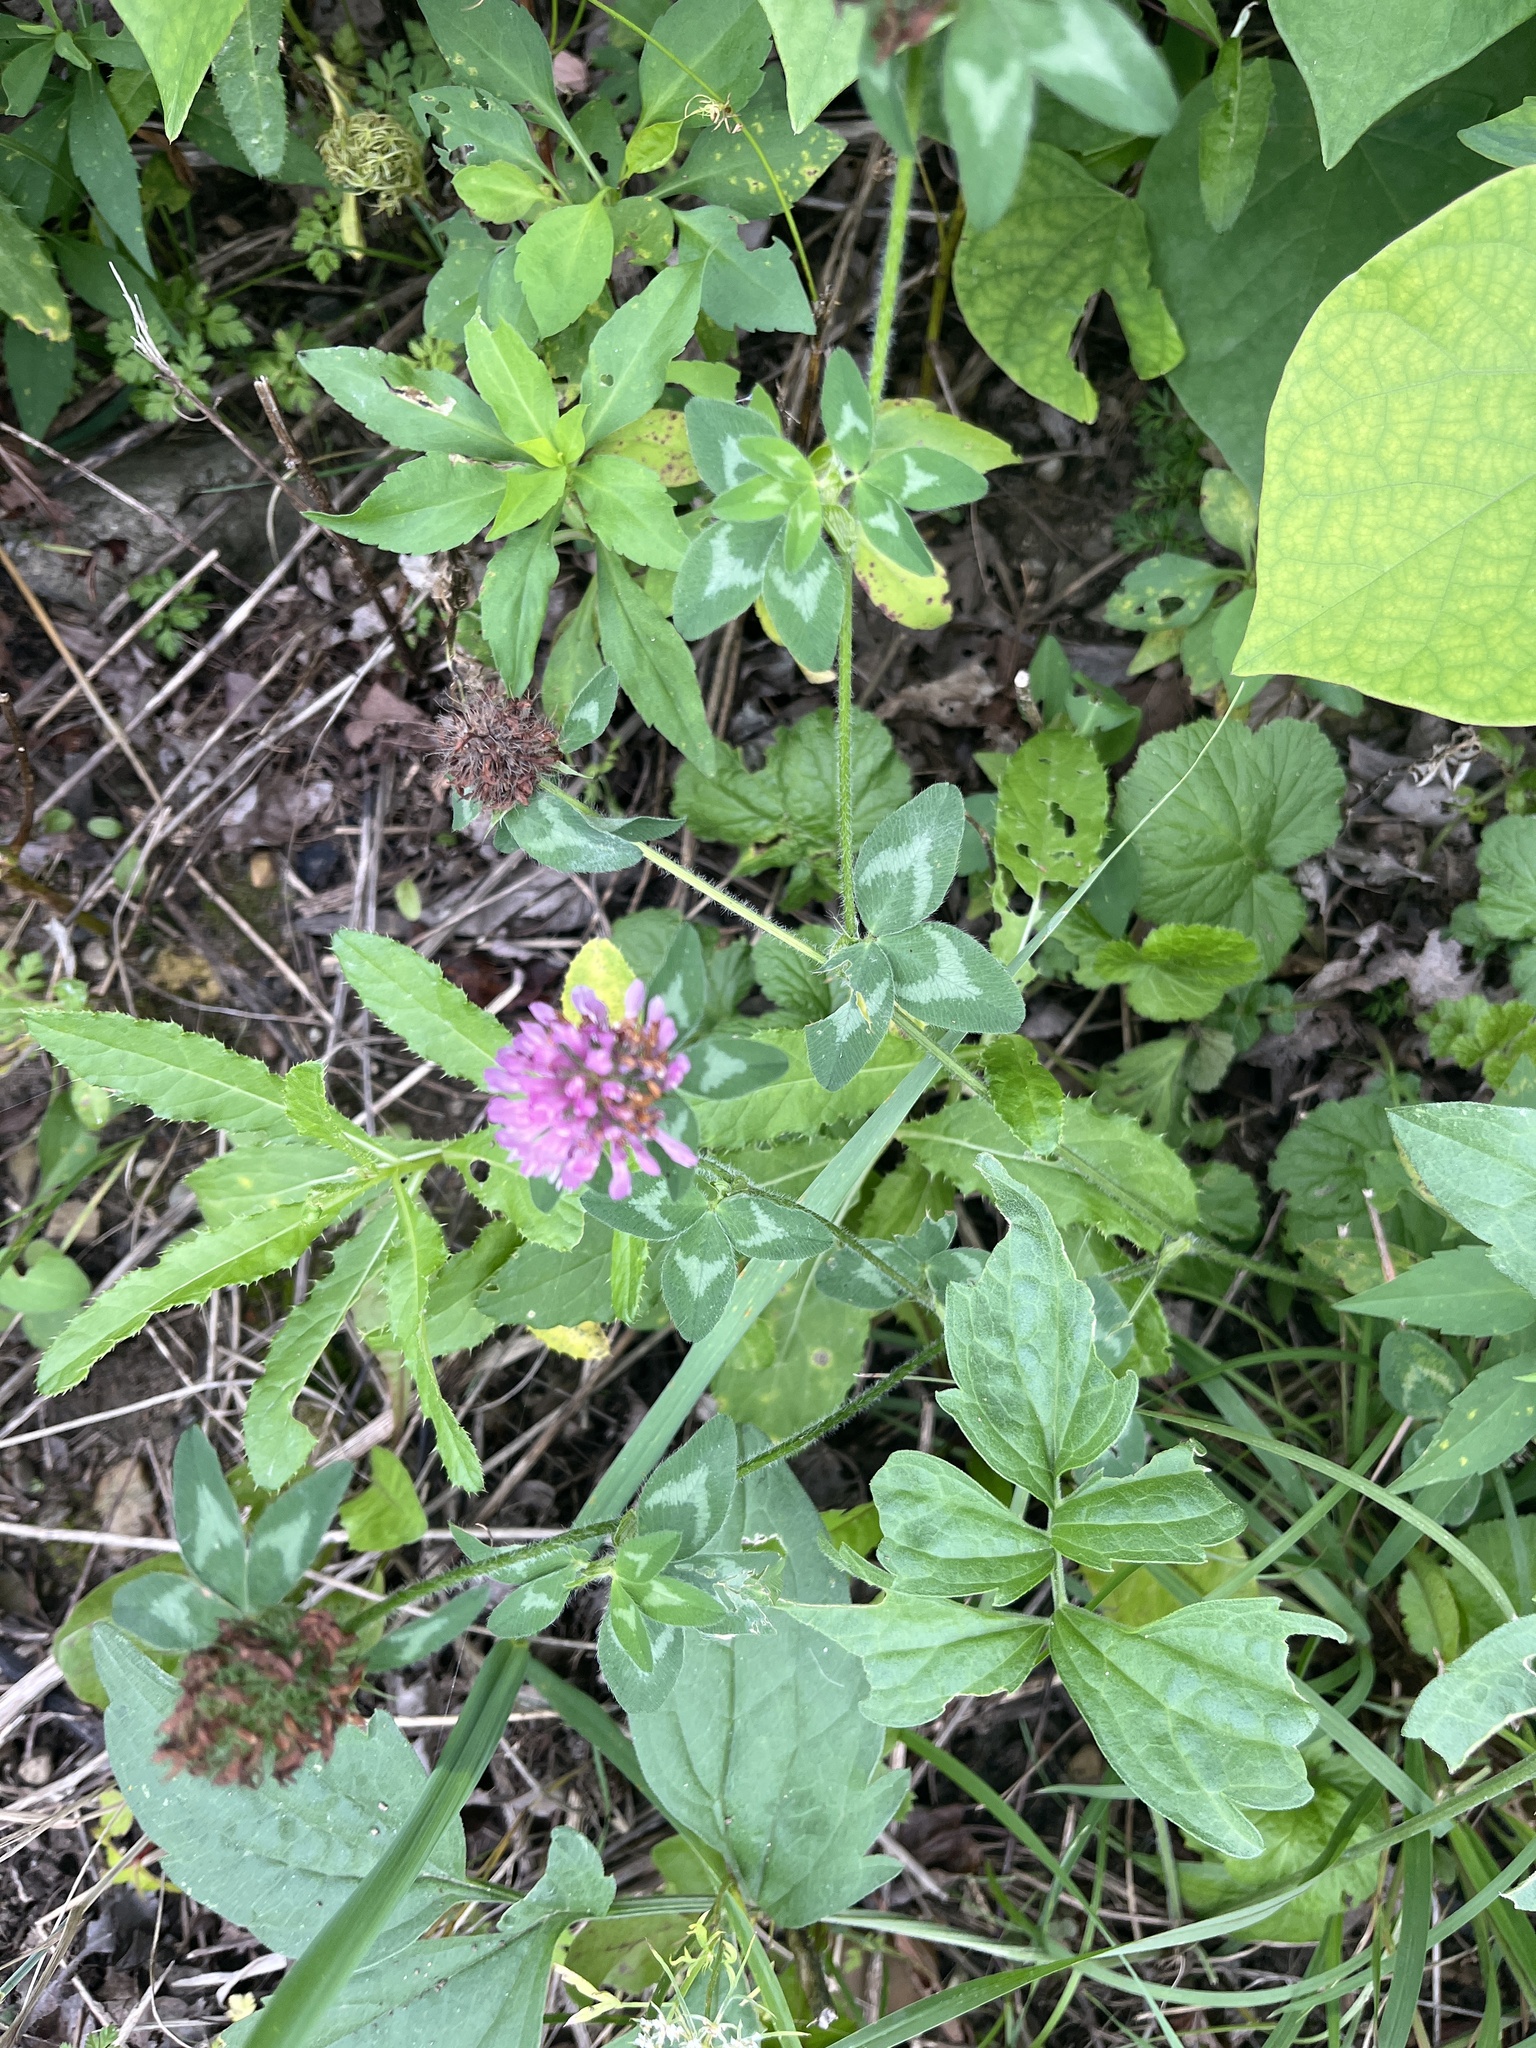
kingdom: Plantae
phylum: Tracheophyta
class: Magnoliopsida
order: Fabales
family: Fabaceae
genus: Trifolium
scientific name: Trifolium pratense
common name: Red clover
